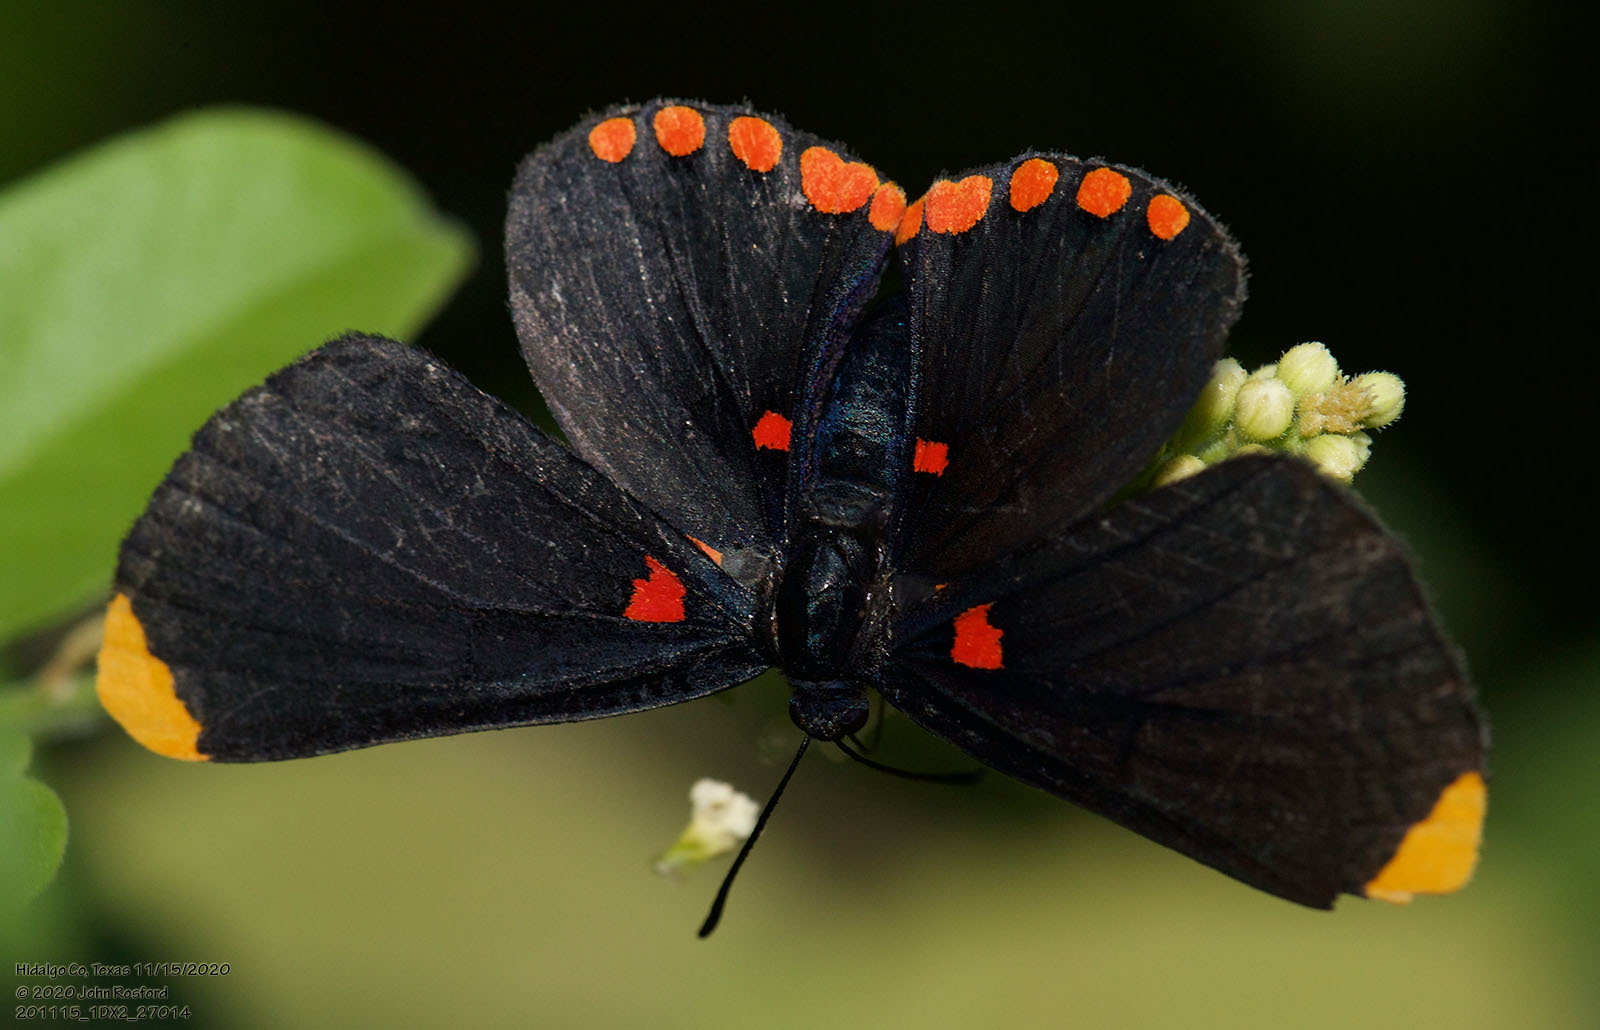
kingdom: Animalia
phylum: Arthropoda
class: Insecta
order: Lepidoptera
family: Lycaenidae
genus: Melanis
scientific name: Melanis pixe
